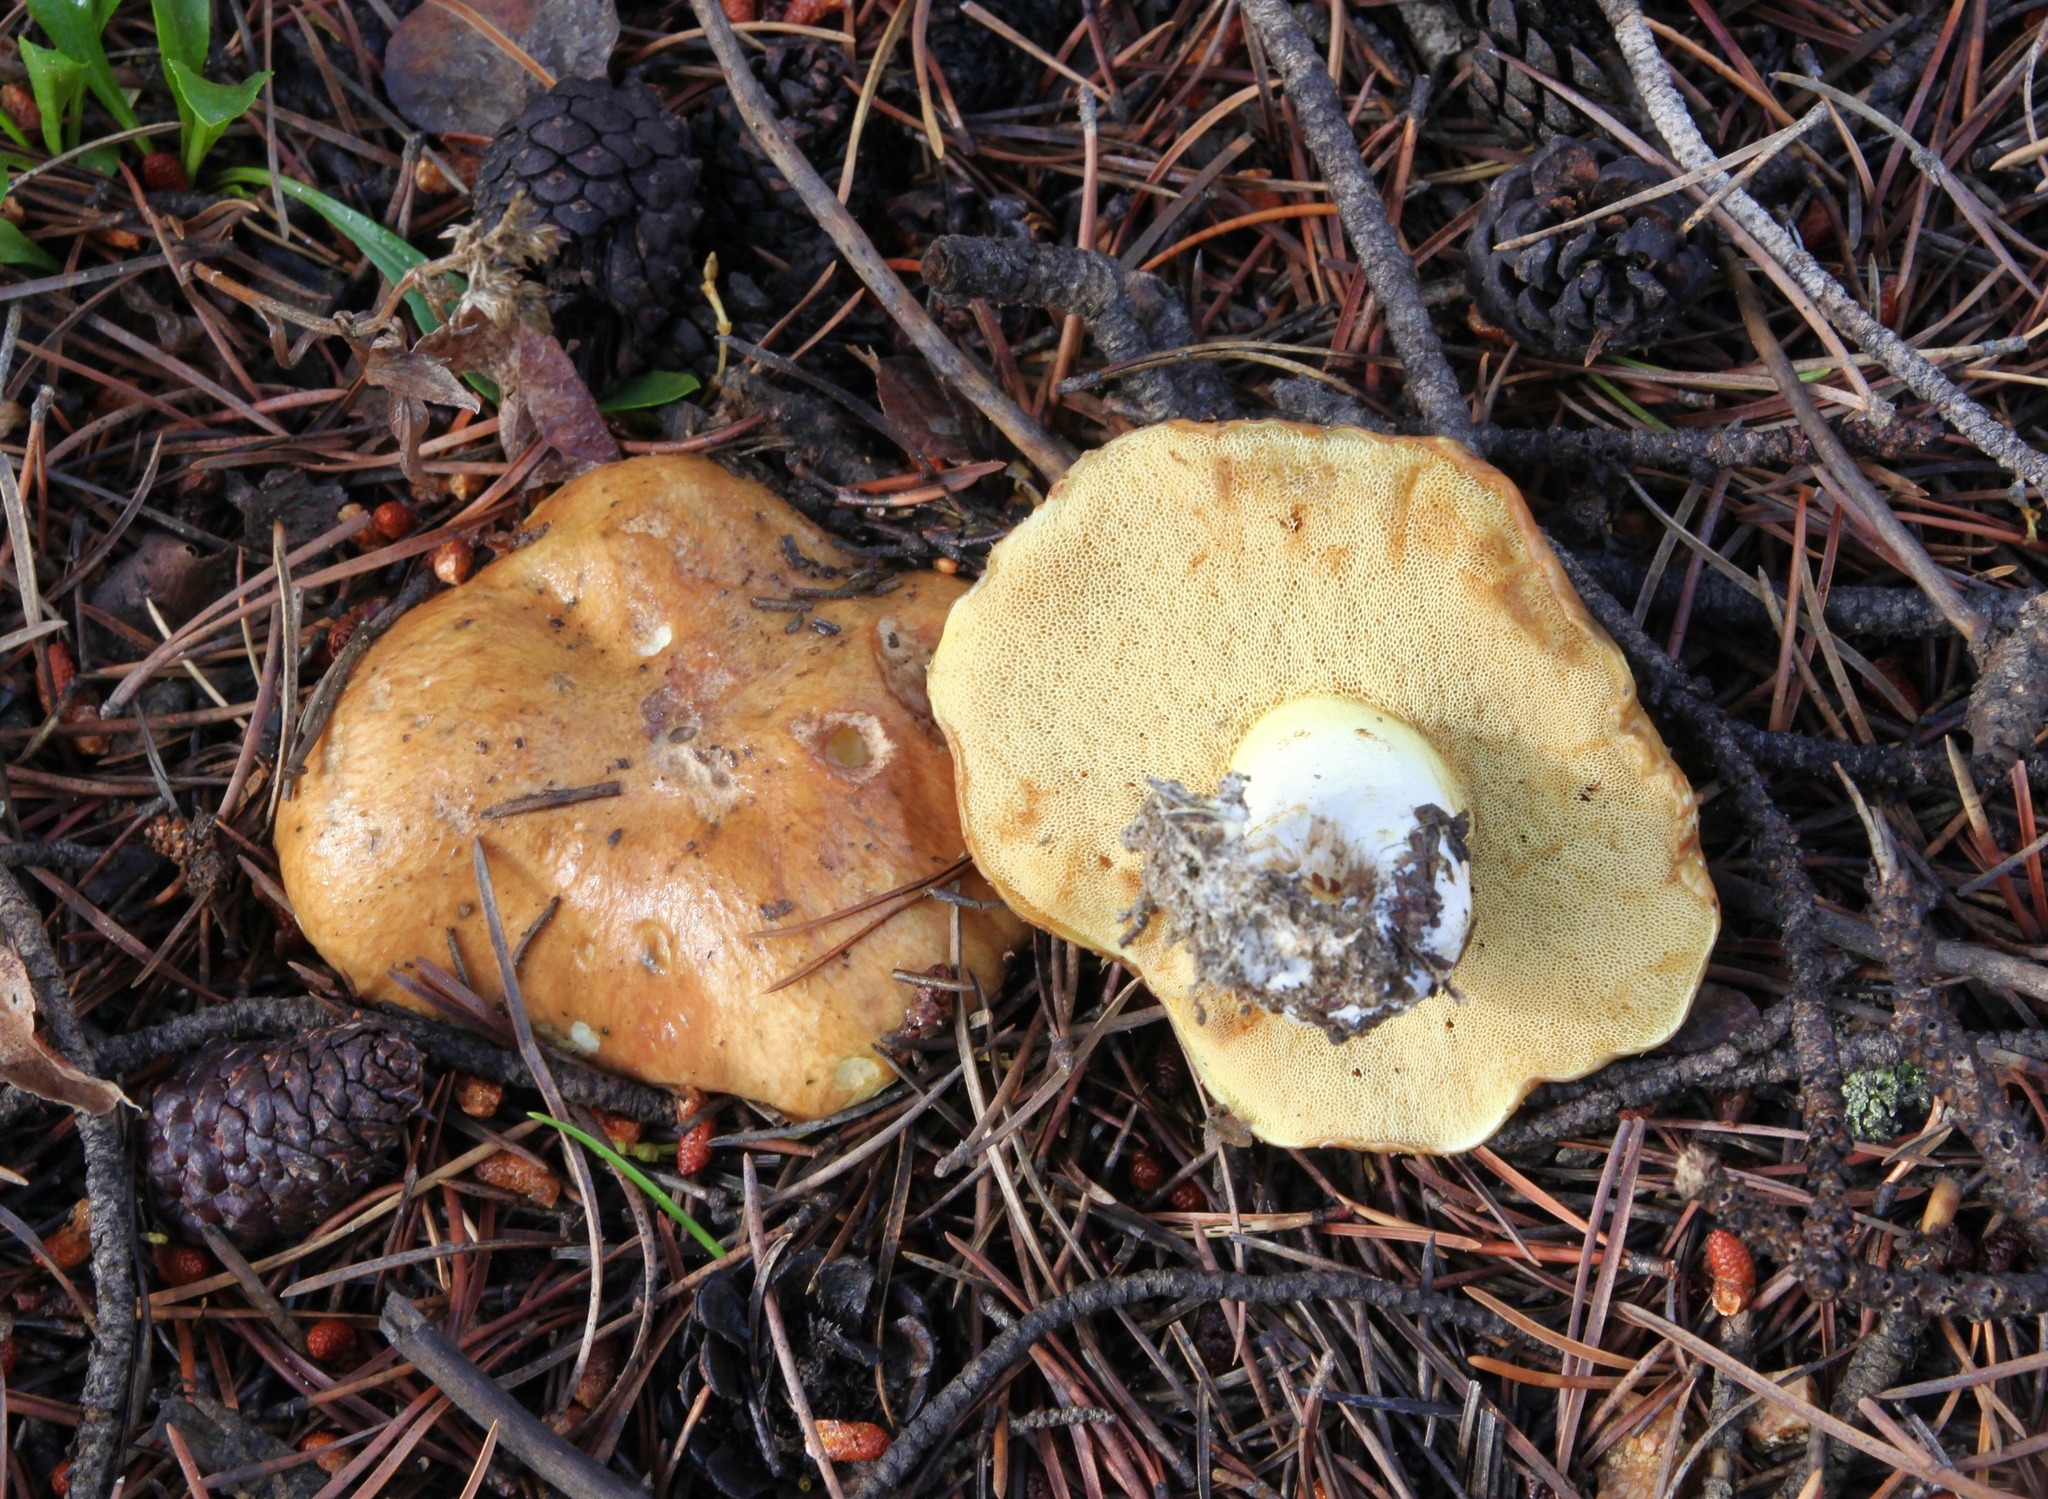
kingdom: Fungi
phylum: Basidiomycota
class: Agaricomycetes
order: Boletales
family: Suillaceae
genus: Suillus
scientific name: Suillus brevipes
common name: Short-stalked suillus
